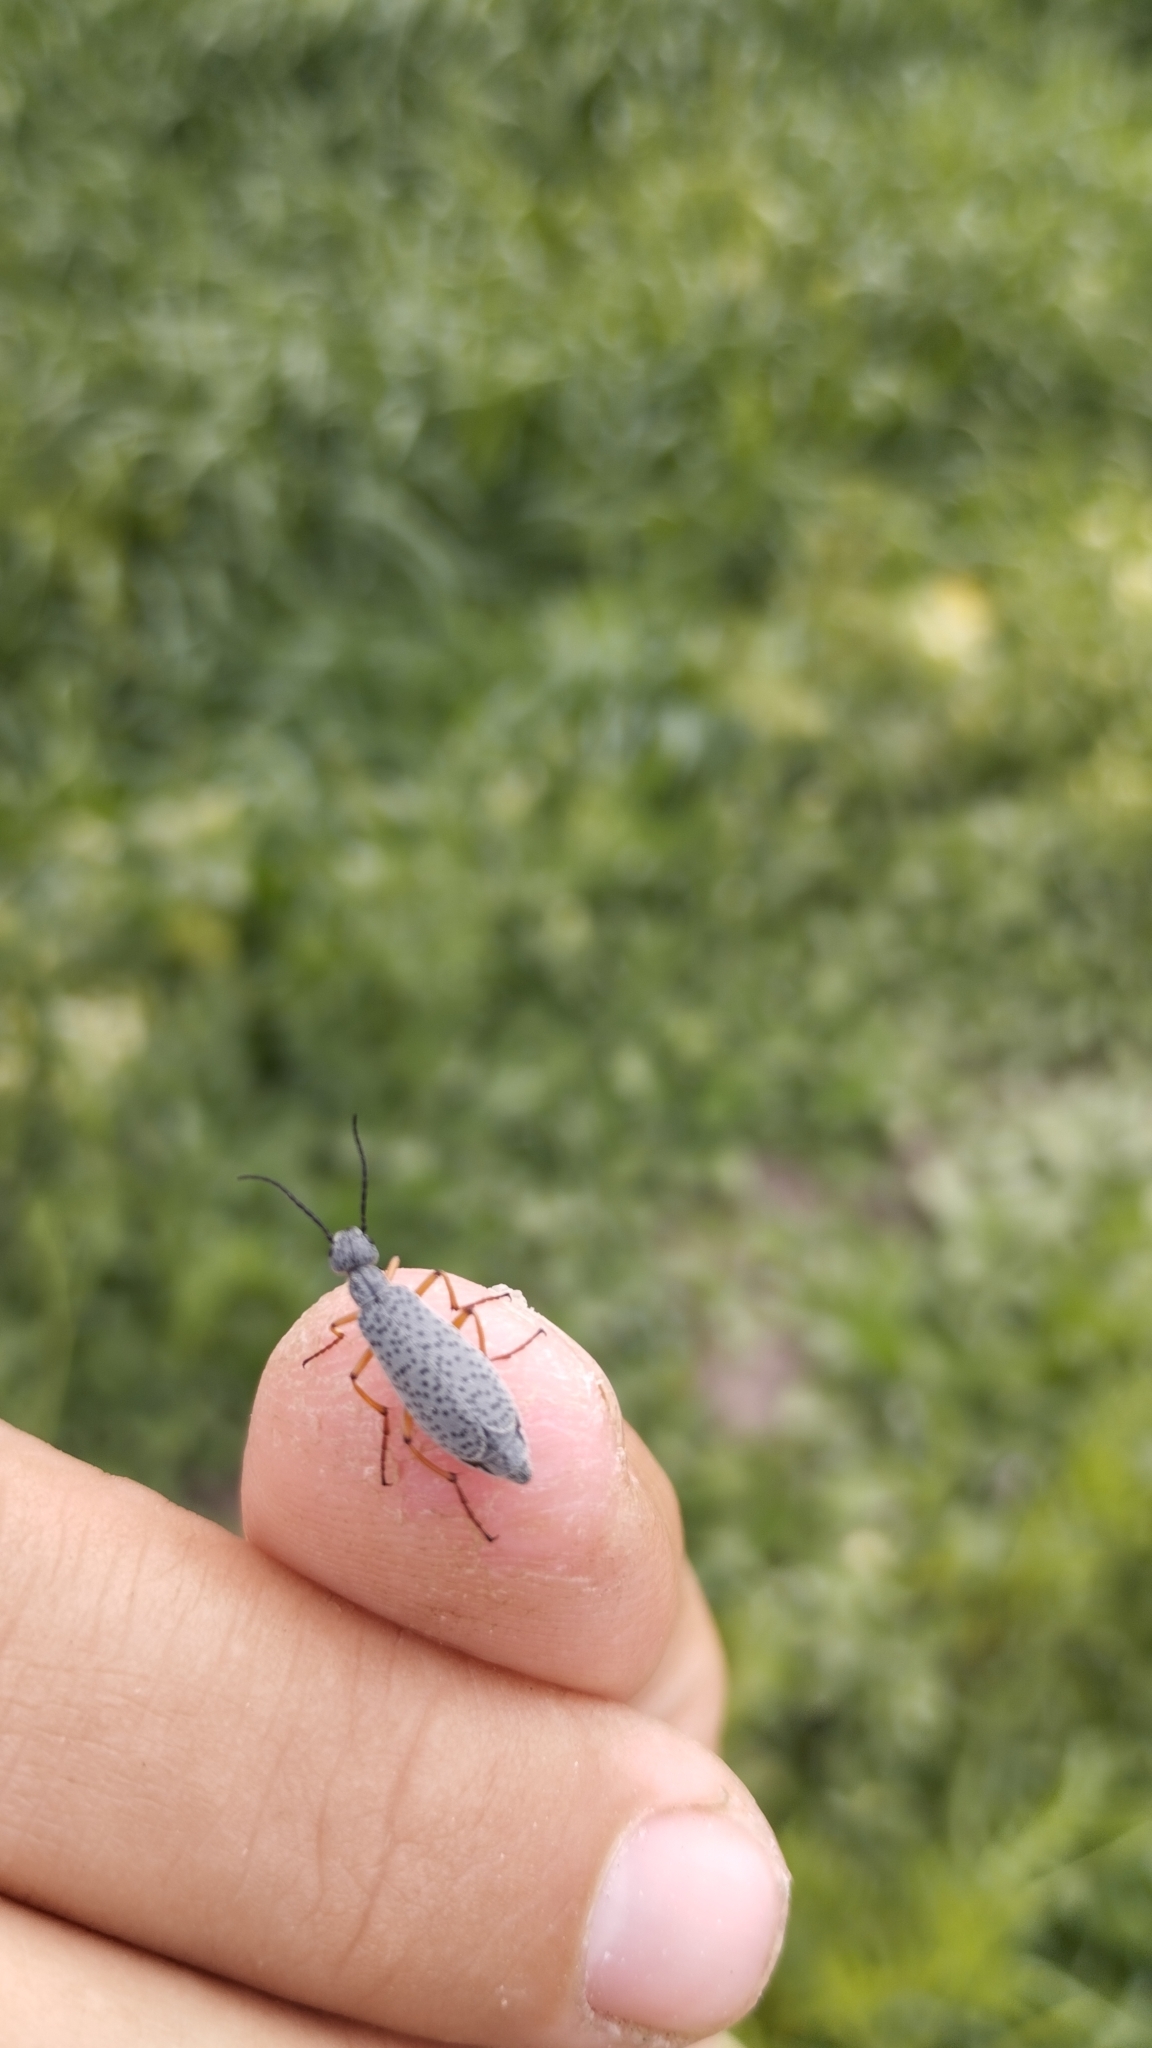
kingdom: Animalia
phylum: Arthropoda
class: Insecta
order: Coleoptera
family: Meloidae
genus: Epicauta
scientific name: Epicauta
